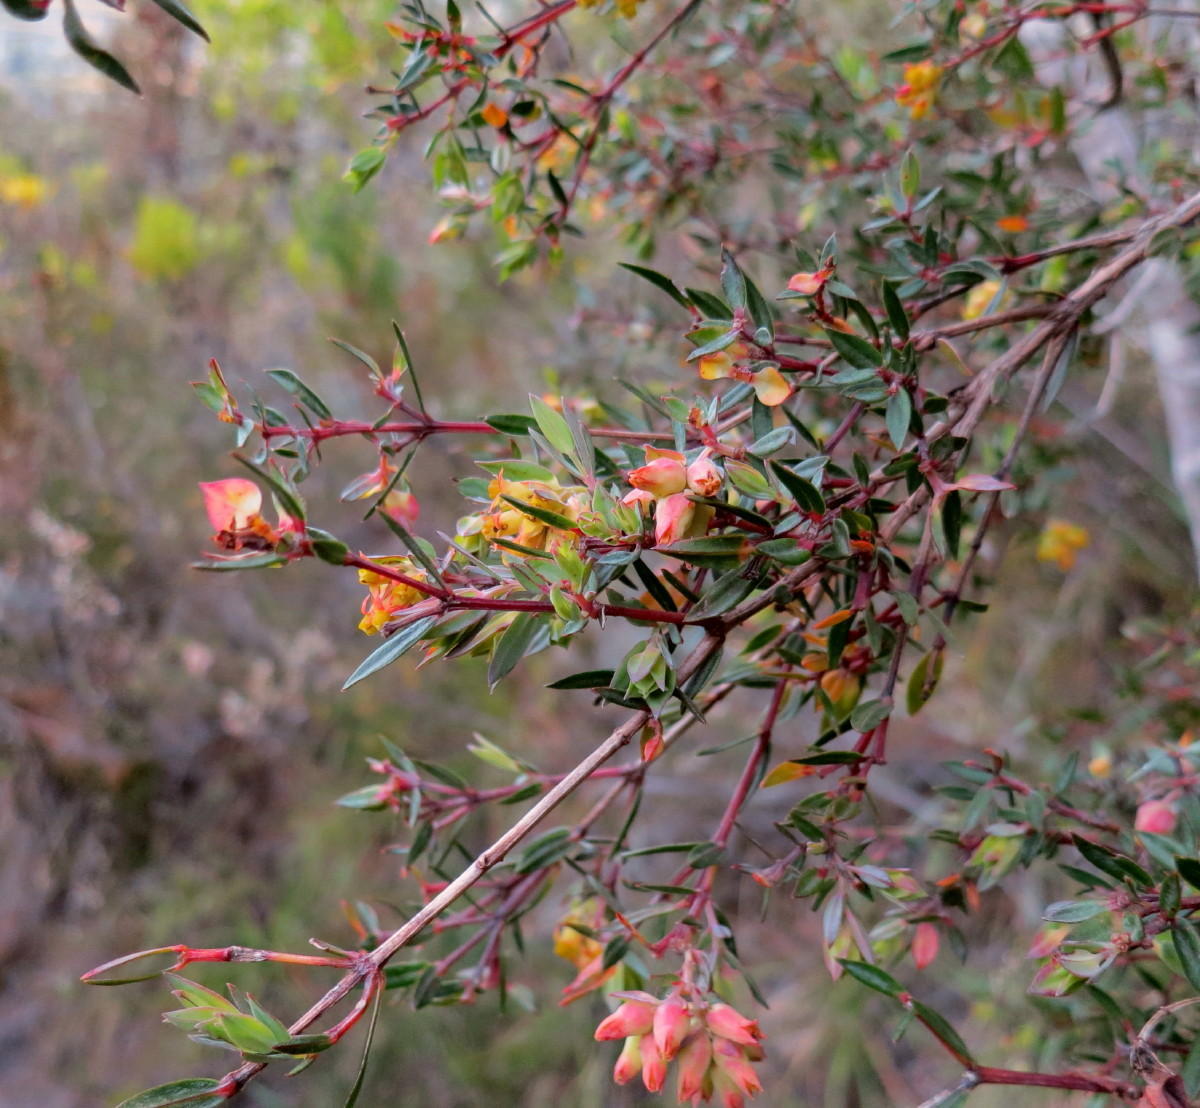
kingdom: Plantae
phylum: Tracheophyta
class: Magnoliopsida
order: Myrtales
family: Penaeaceae
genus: Penaea
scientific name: Penaea acutifolia
